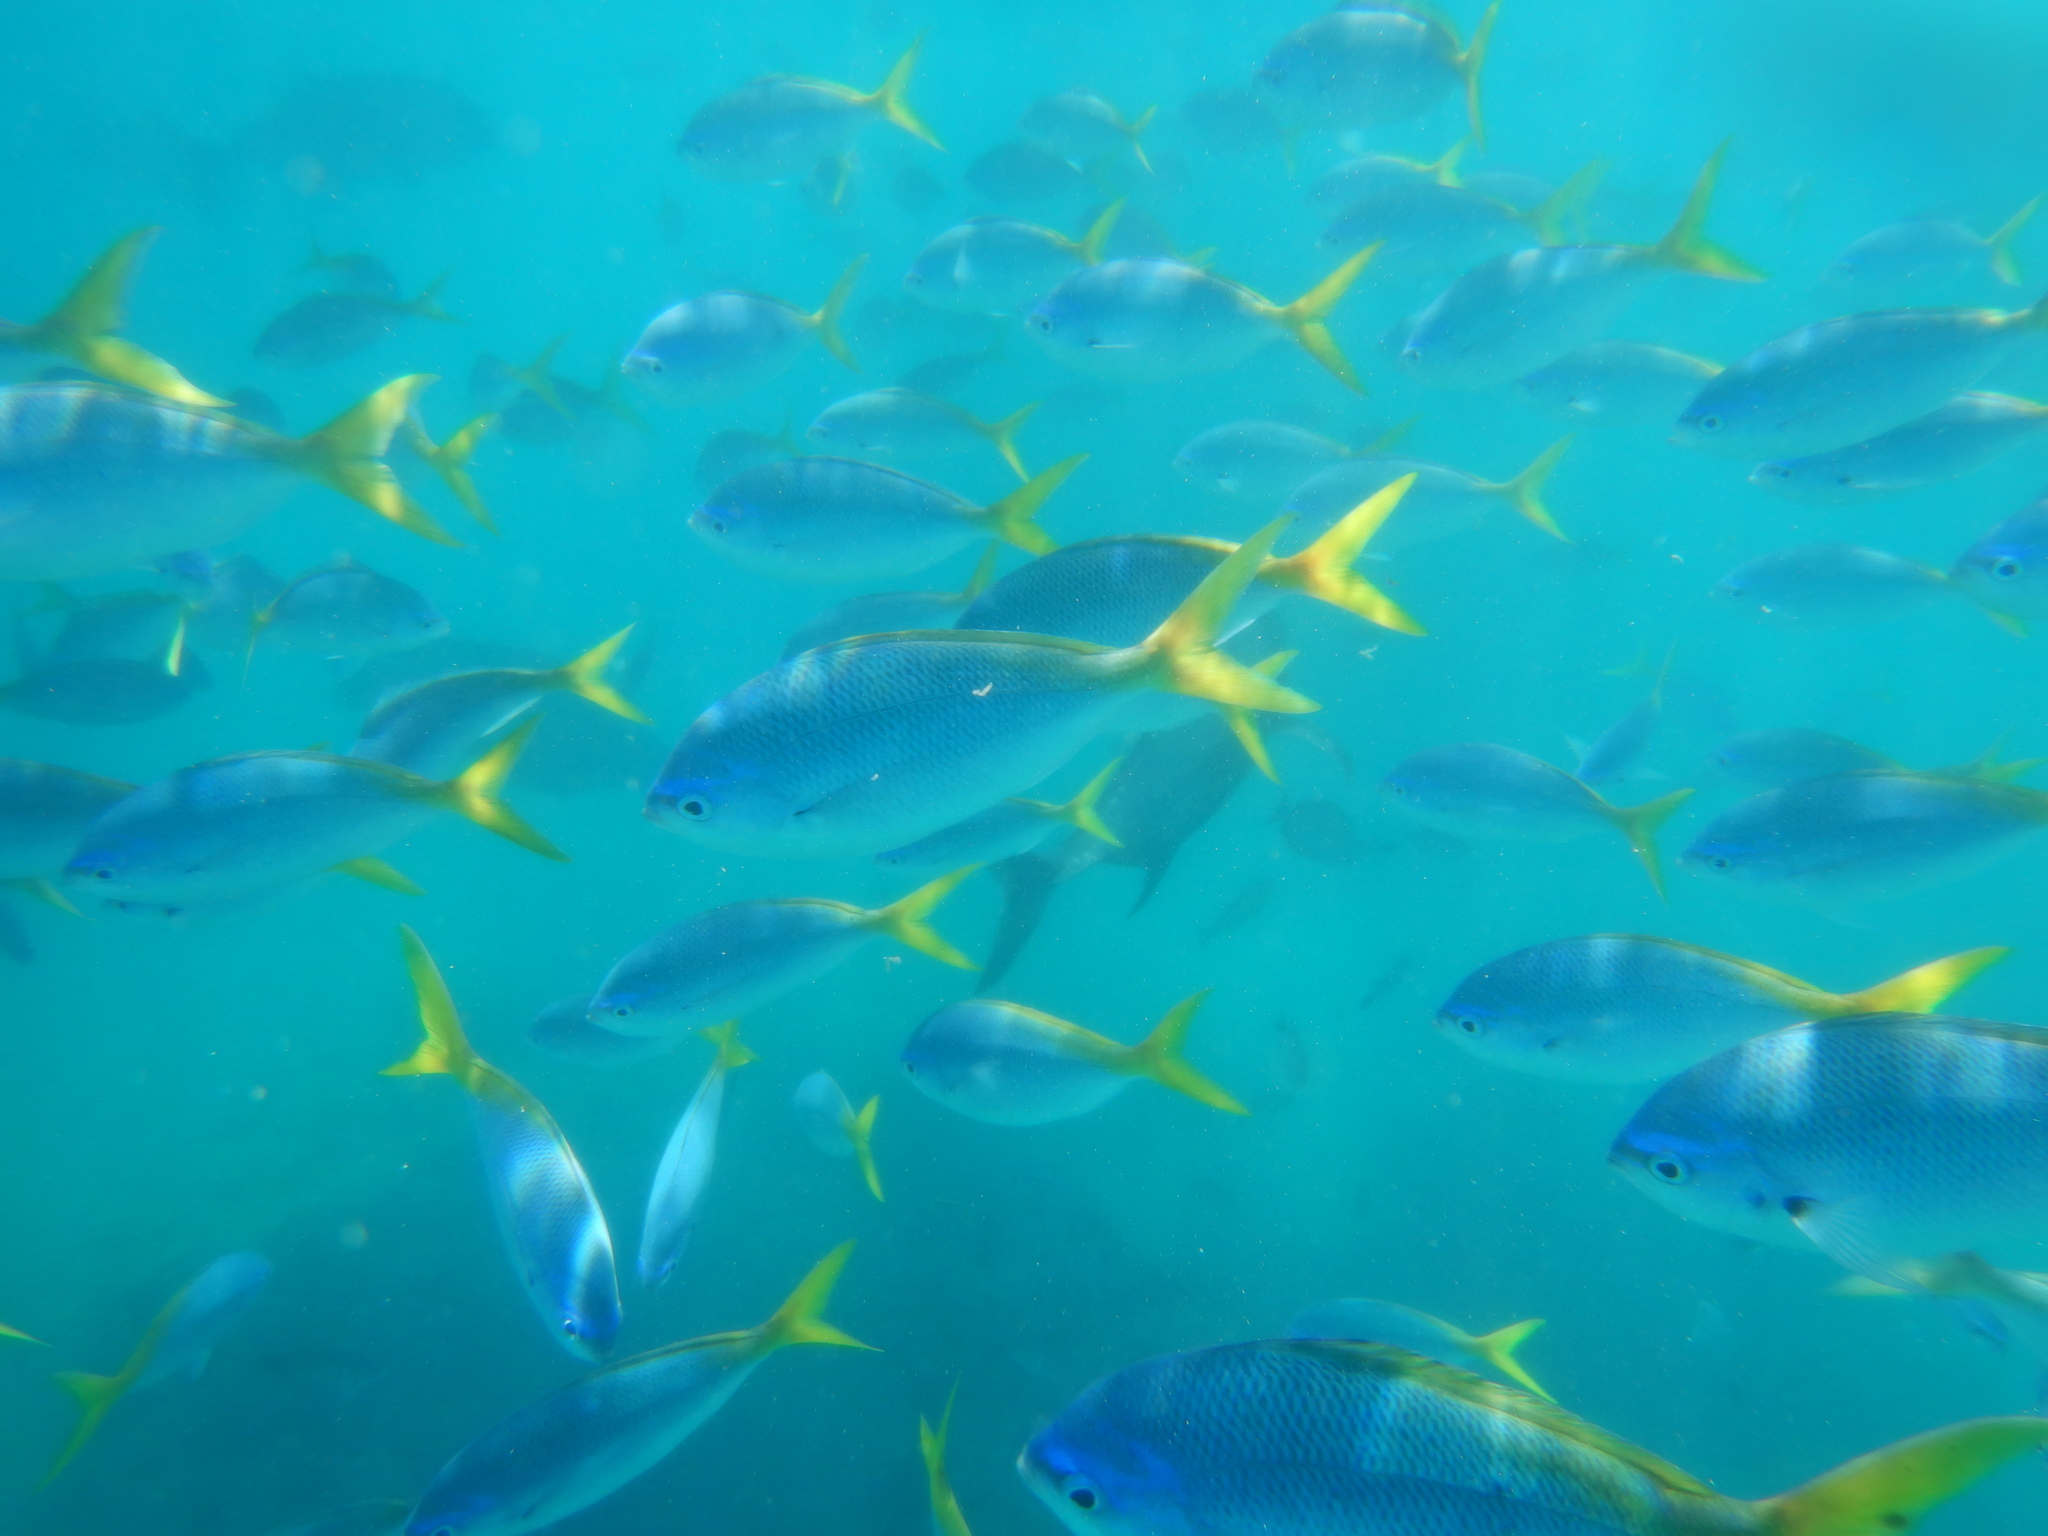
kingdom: Animalia
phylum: Chordata
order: Perciformes
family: Caesionidae
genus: Caesio
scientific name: Caesio cuning
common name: Red-bellied fusilier
